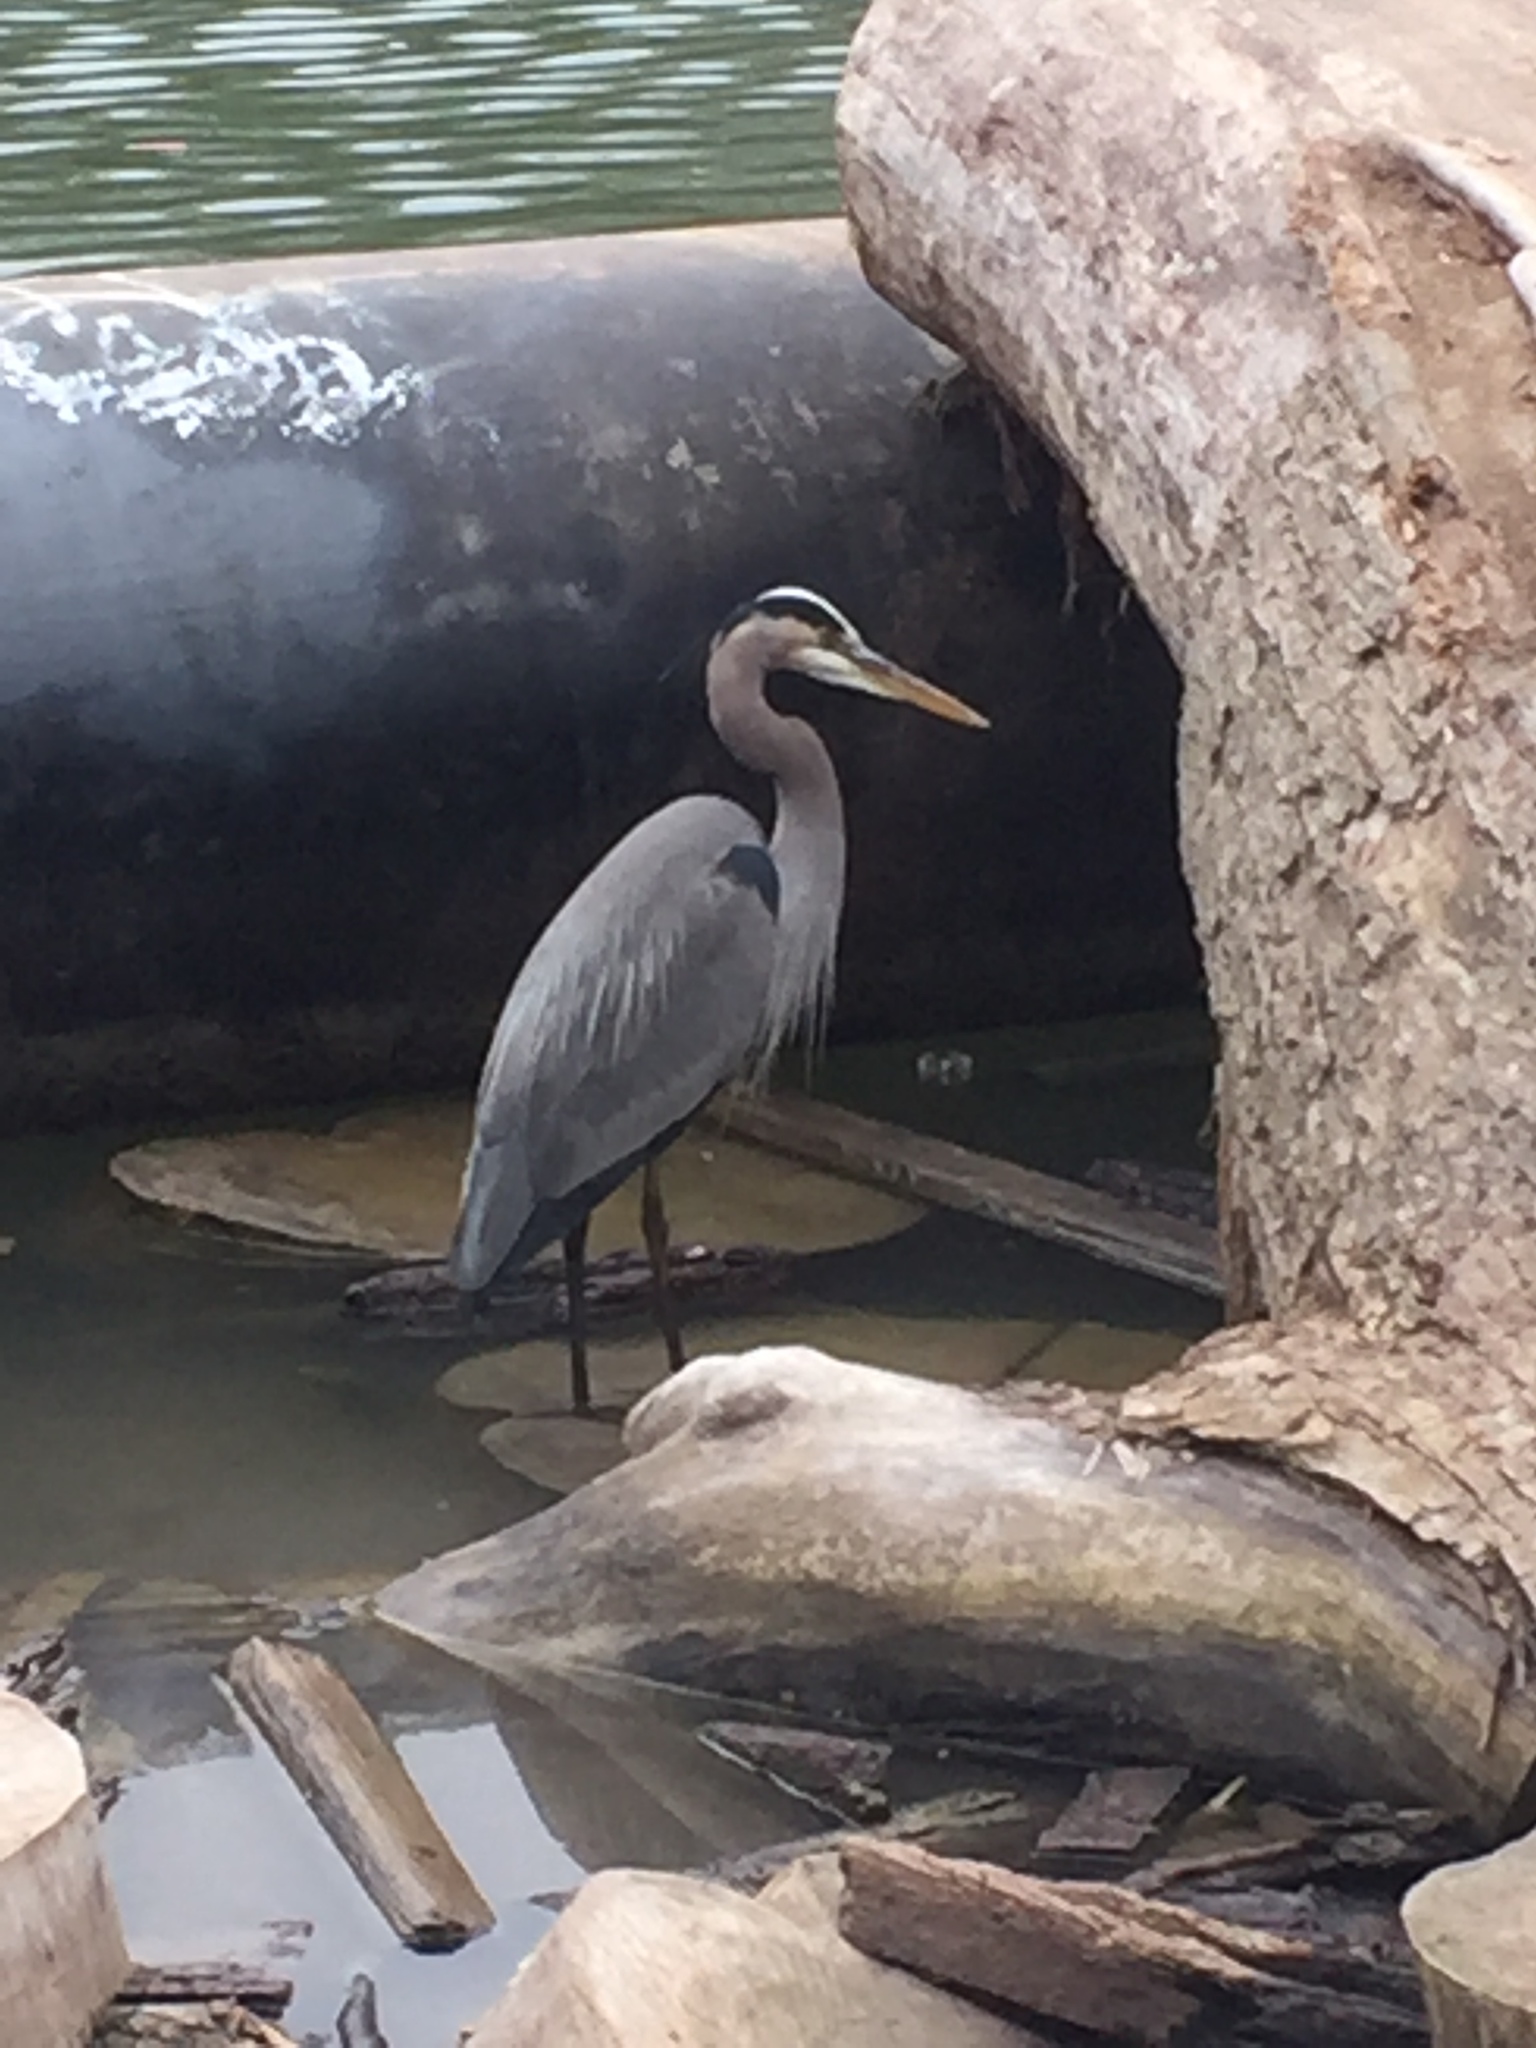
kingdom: Animalia
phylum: Chordata
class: Aves
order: Pelecaniformes
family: Ardeidae
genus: Ardea
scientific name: Ardea herodias
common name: Great blue heron
